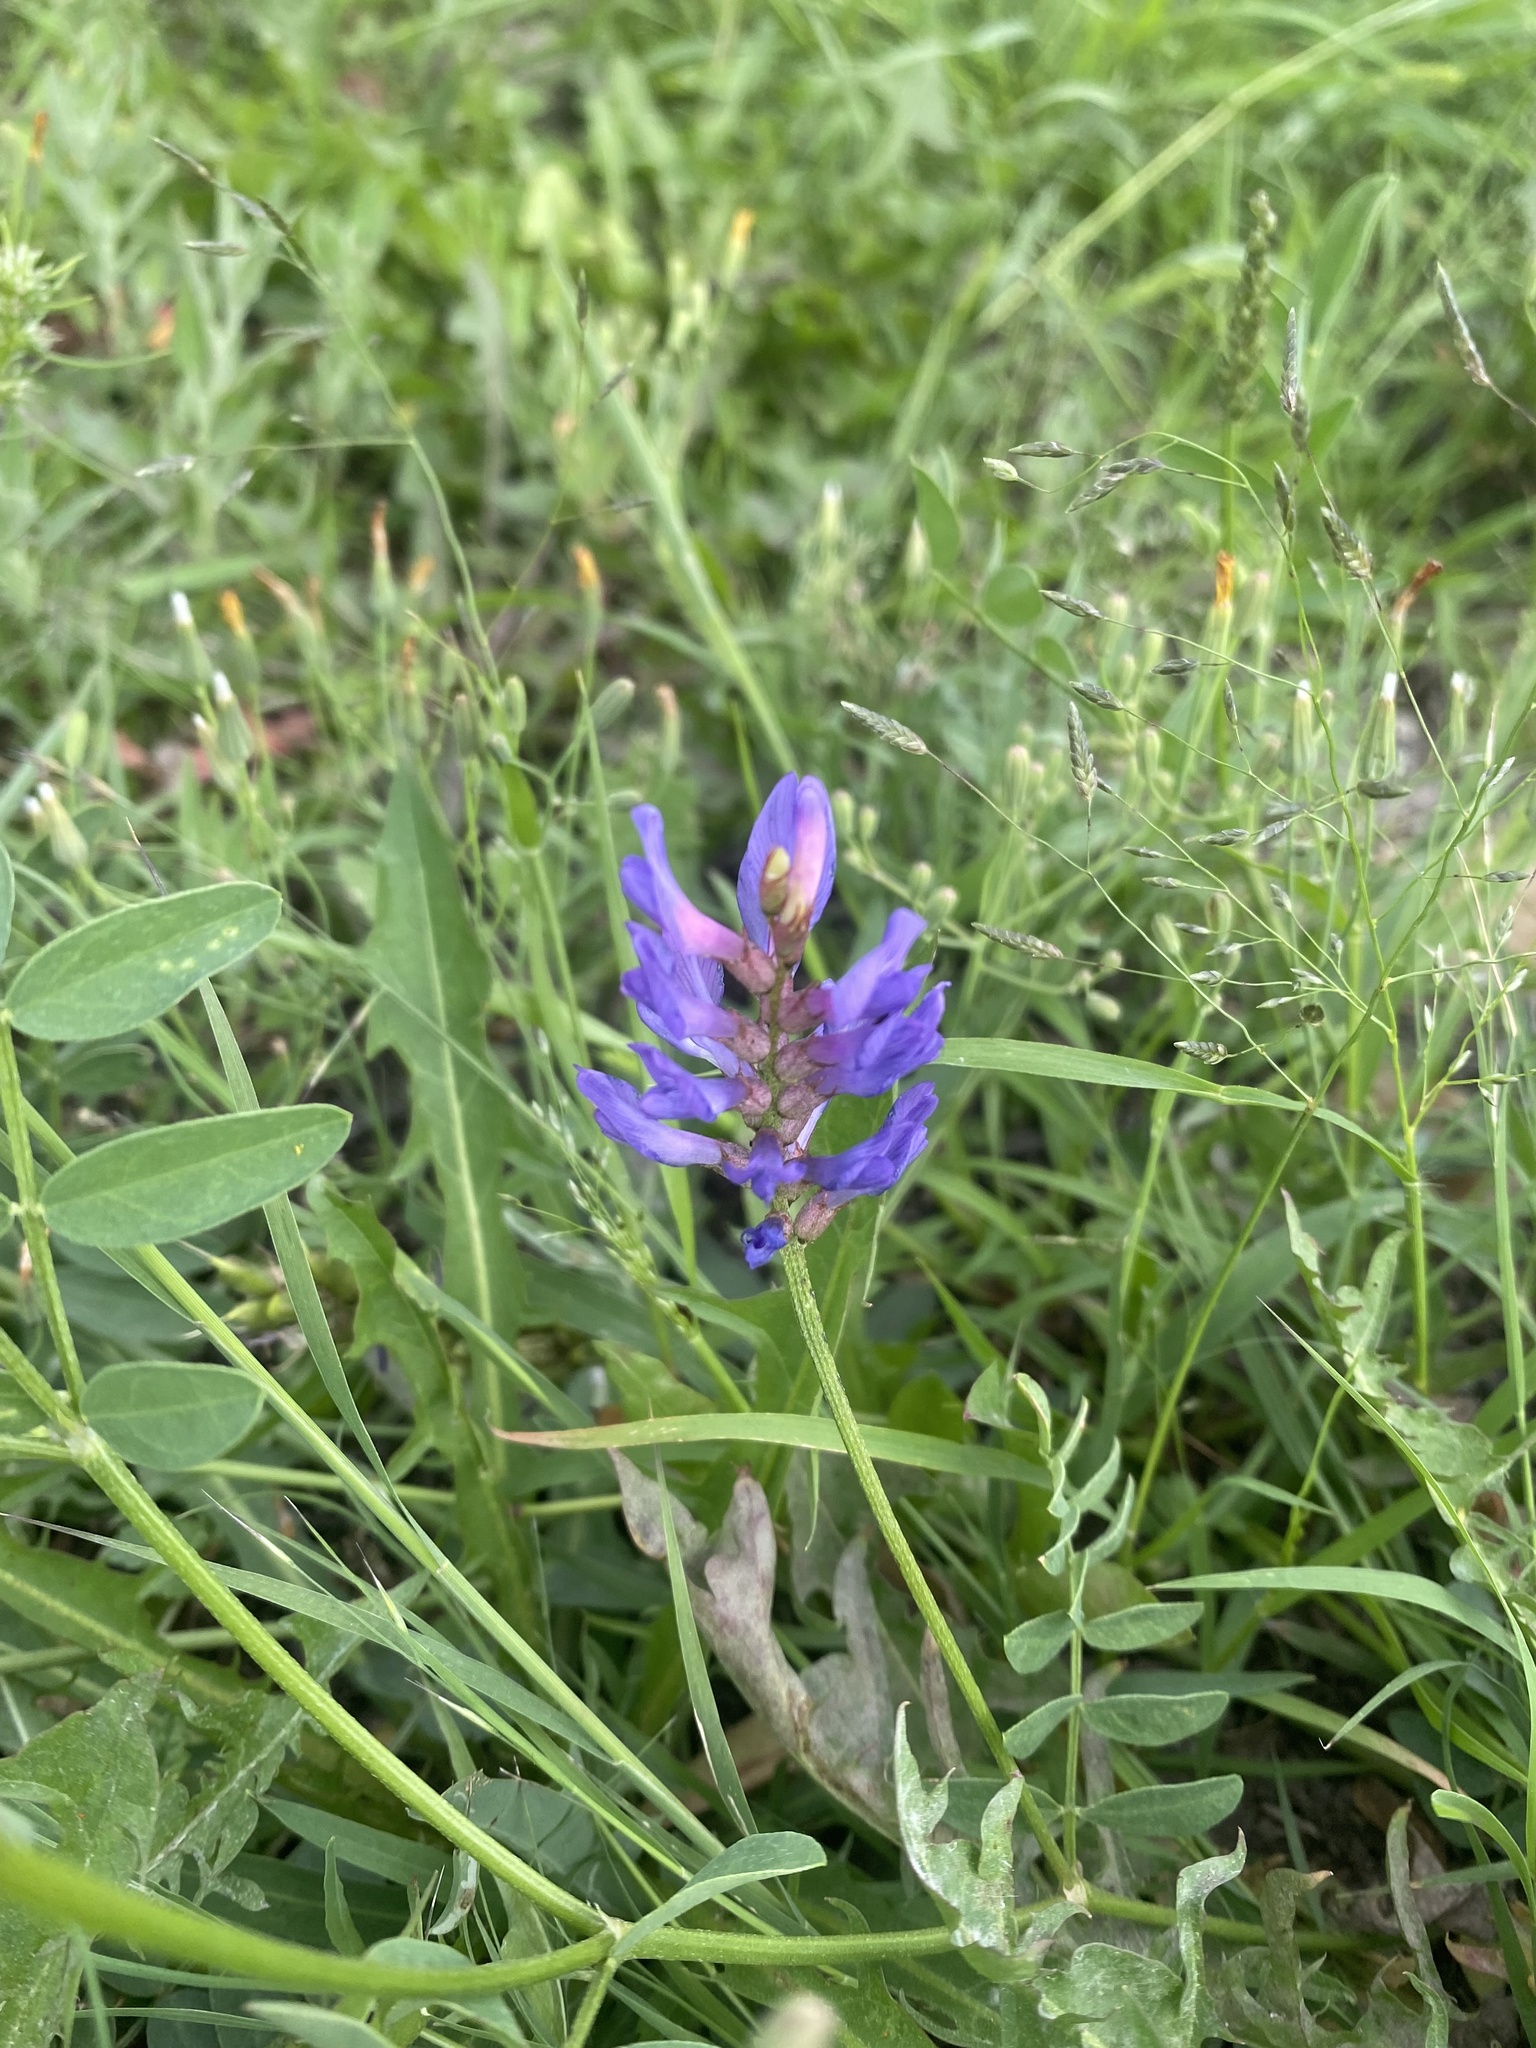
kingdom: Plantae
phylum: Tracheophyta
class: Magnoliopsida
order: Fabales
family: Fabaceae
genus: Astragalus
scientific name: Astragalus laxmannii
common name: Laxmann's milk-vetch
